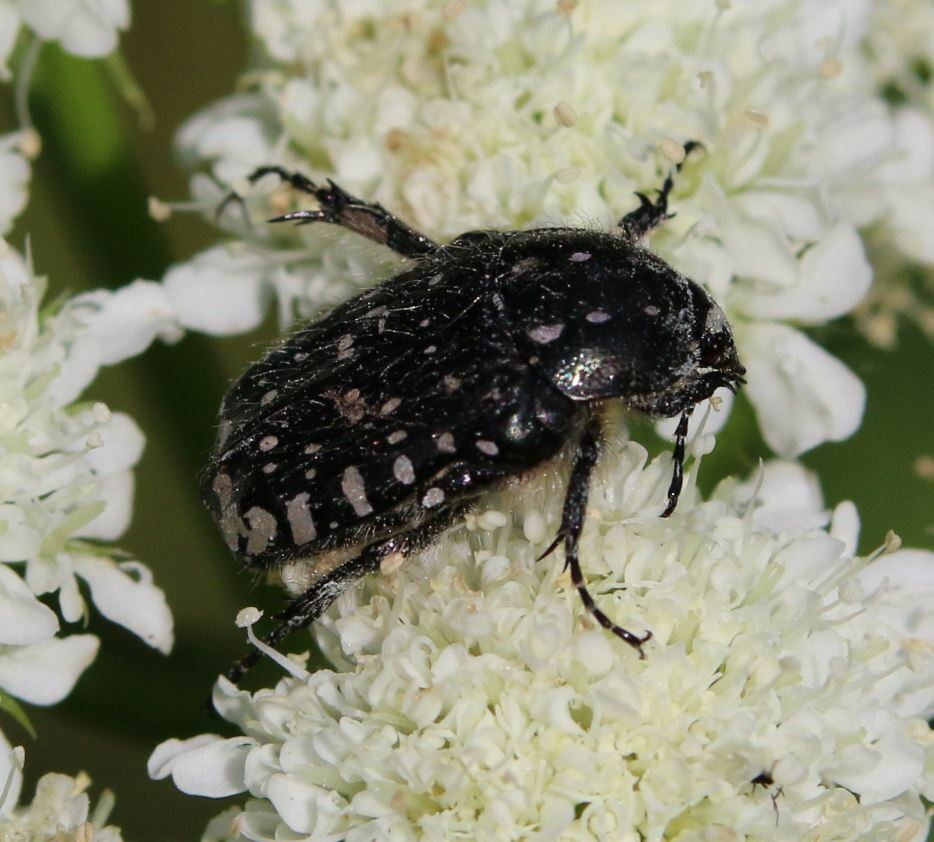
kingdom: Animalia
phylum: Arthropoda
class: Insecta
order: Coleoptera
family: Scarabaeidae
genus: Oxythyrea
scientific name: Oxythyrea funesta
